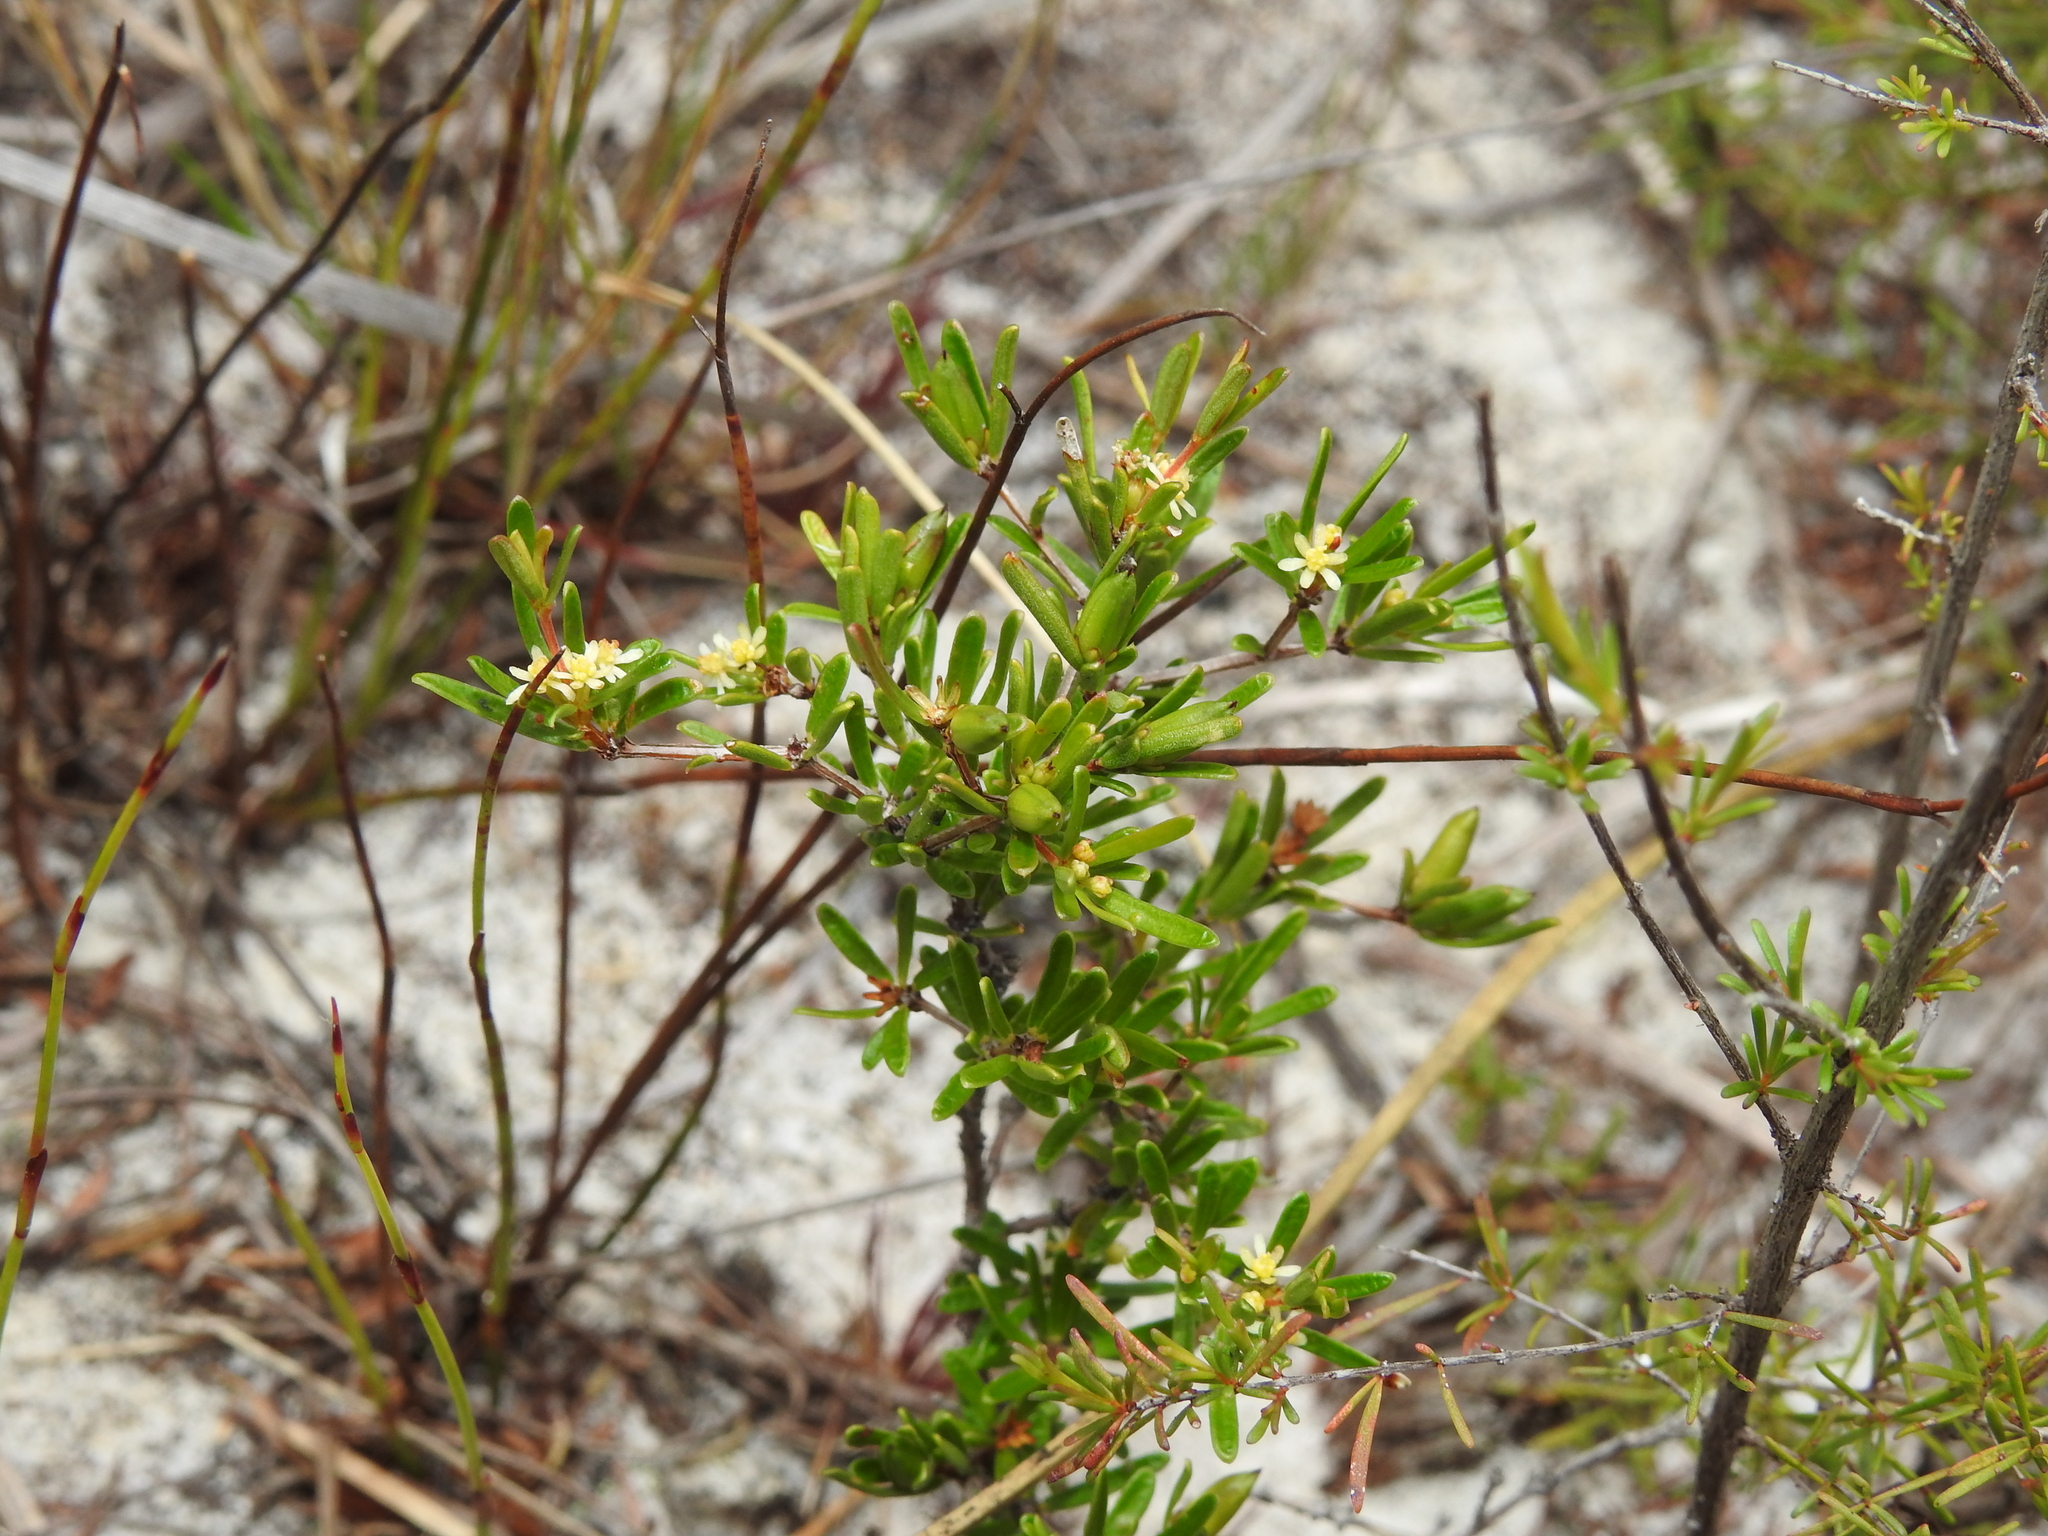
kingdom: Plantae
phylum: Tracheophyta
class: Magnoliopsida
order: Malpighiales
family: Picrodendraceae
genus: Pseudanthus
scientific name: Pseudanthus orientalis
